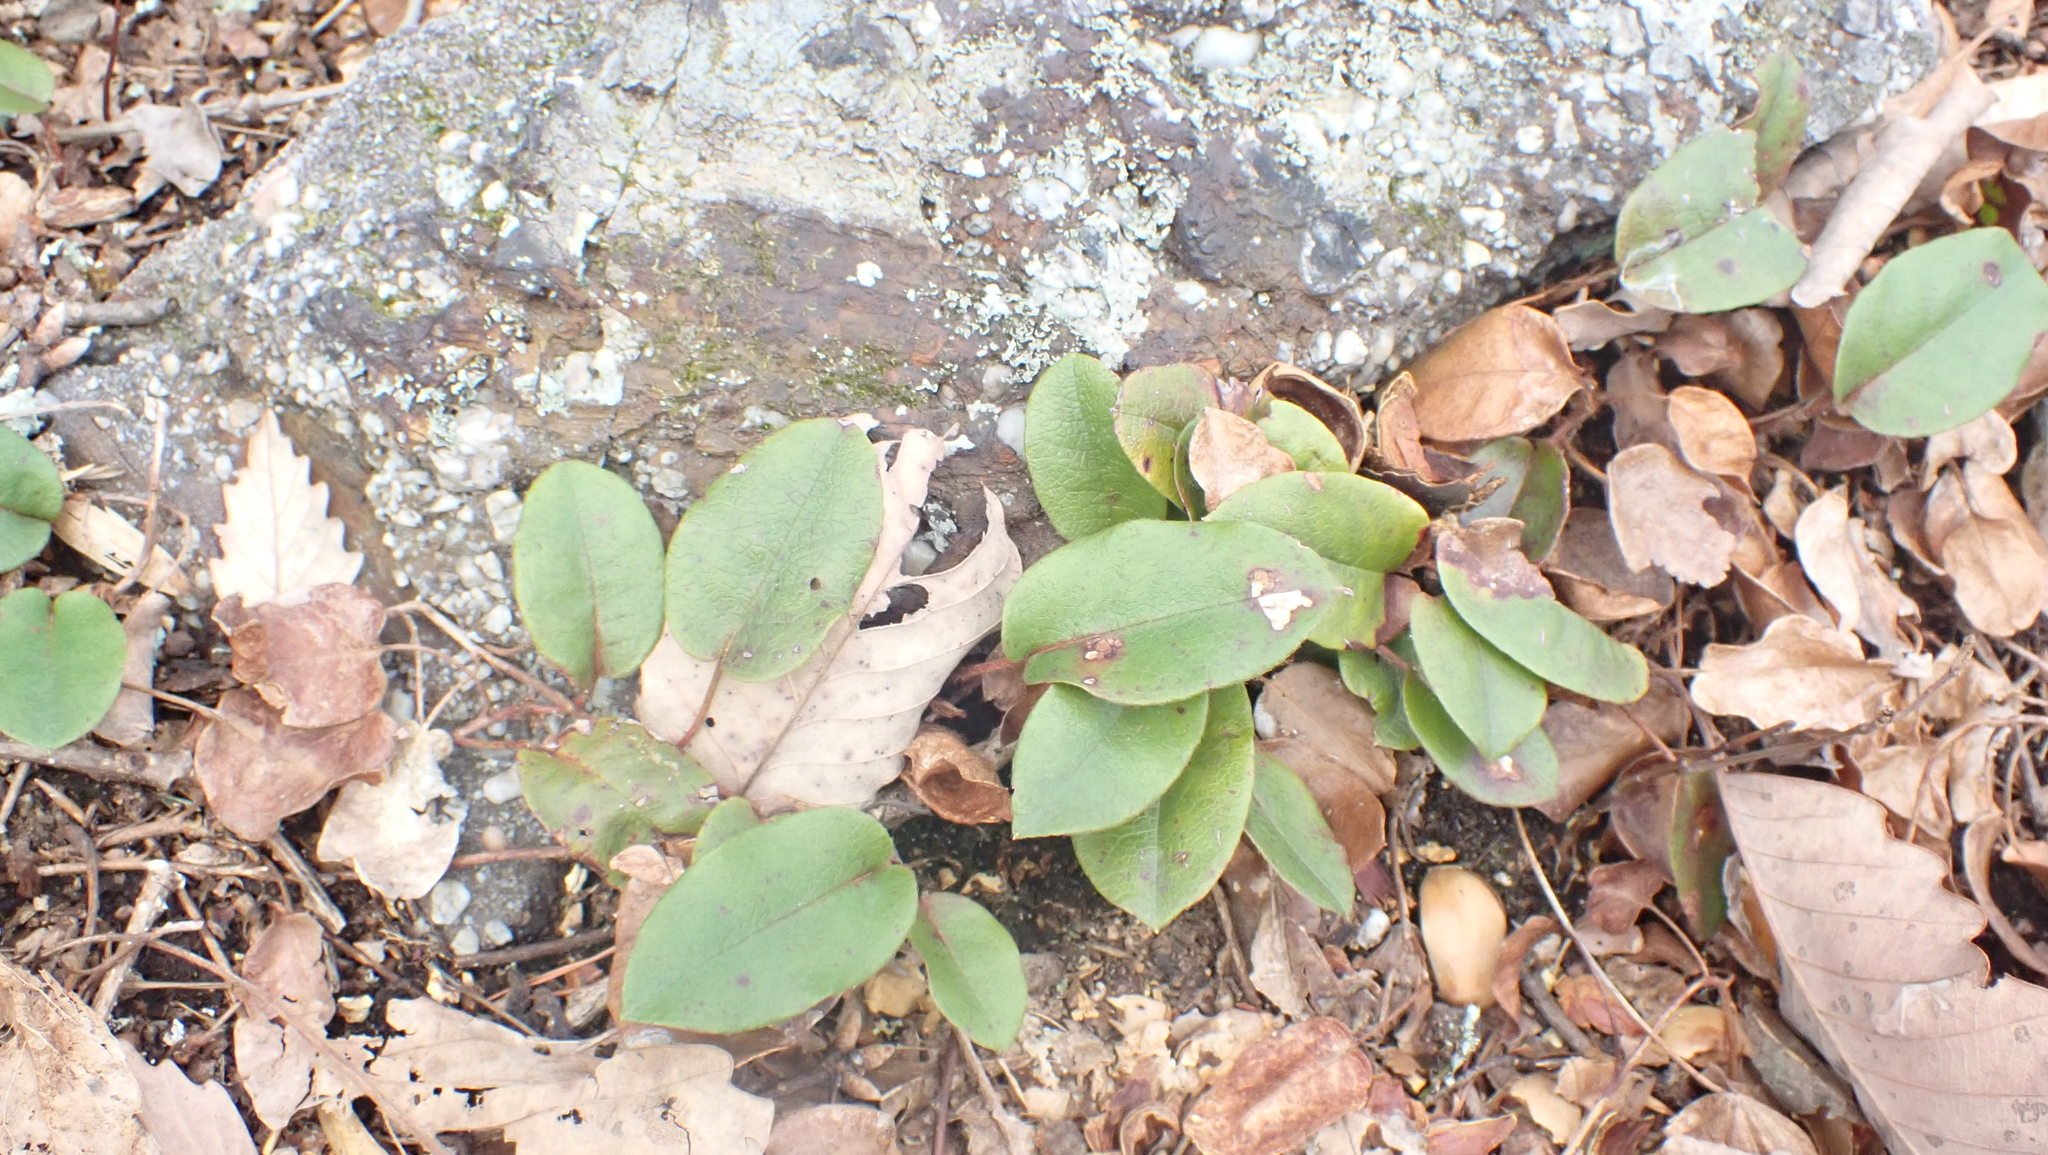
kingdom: Plantae
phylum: Tracheophyta
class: Magnoliopsida
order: Ericales
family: Ericaceae
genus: Epigaea
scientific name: Epigaea repens
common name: Gravelroot
